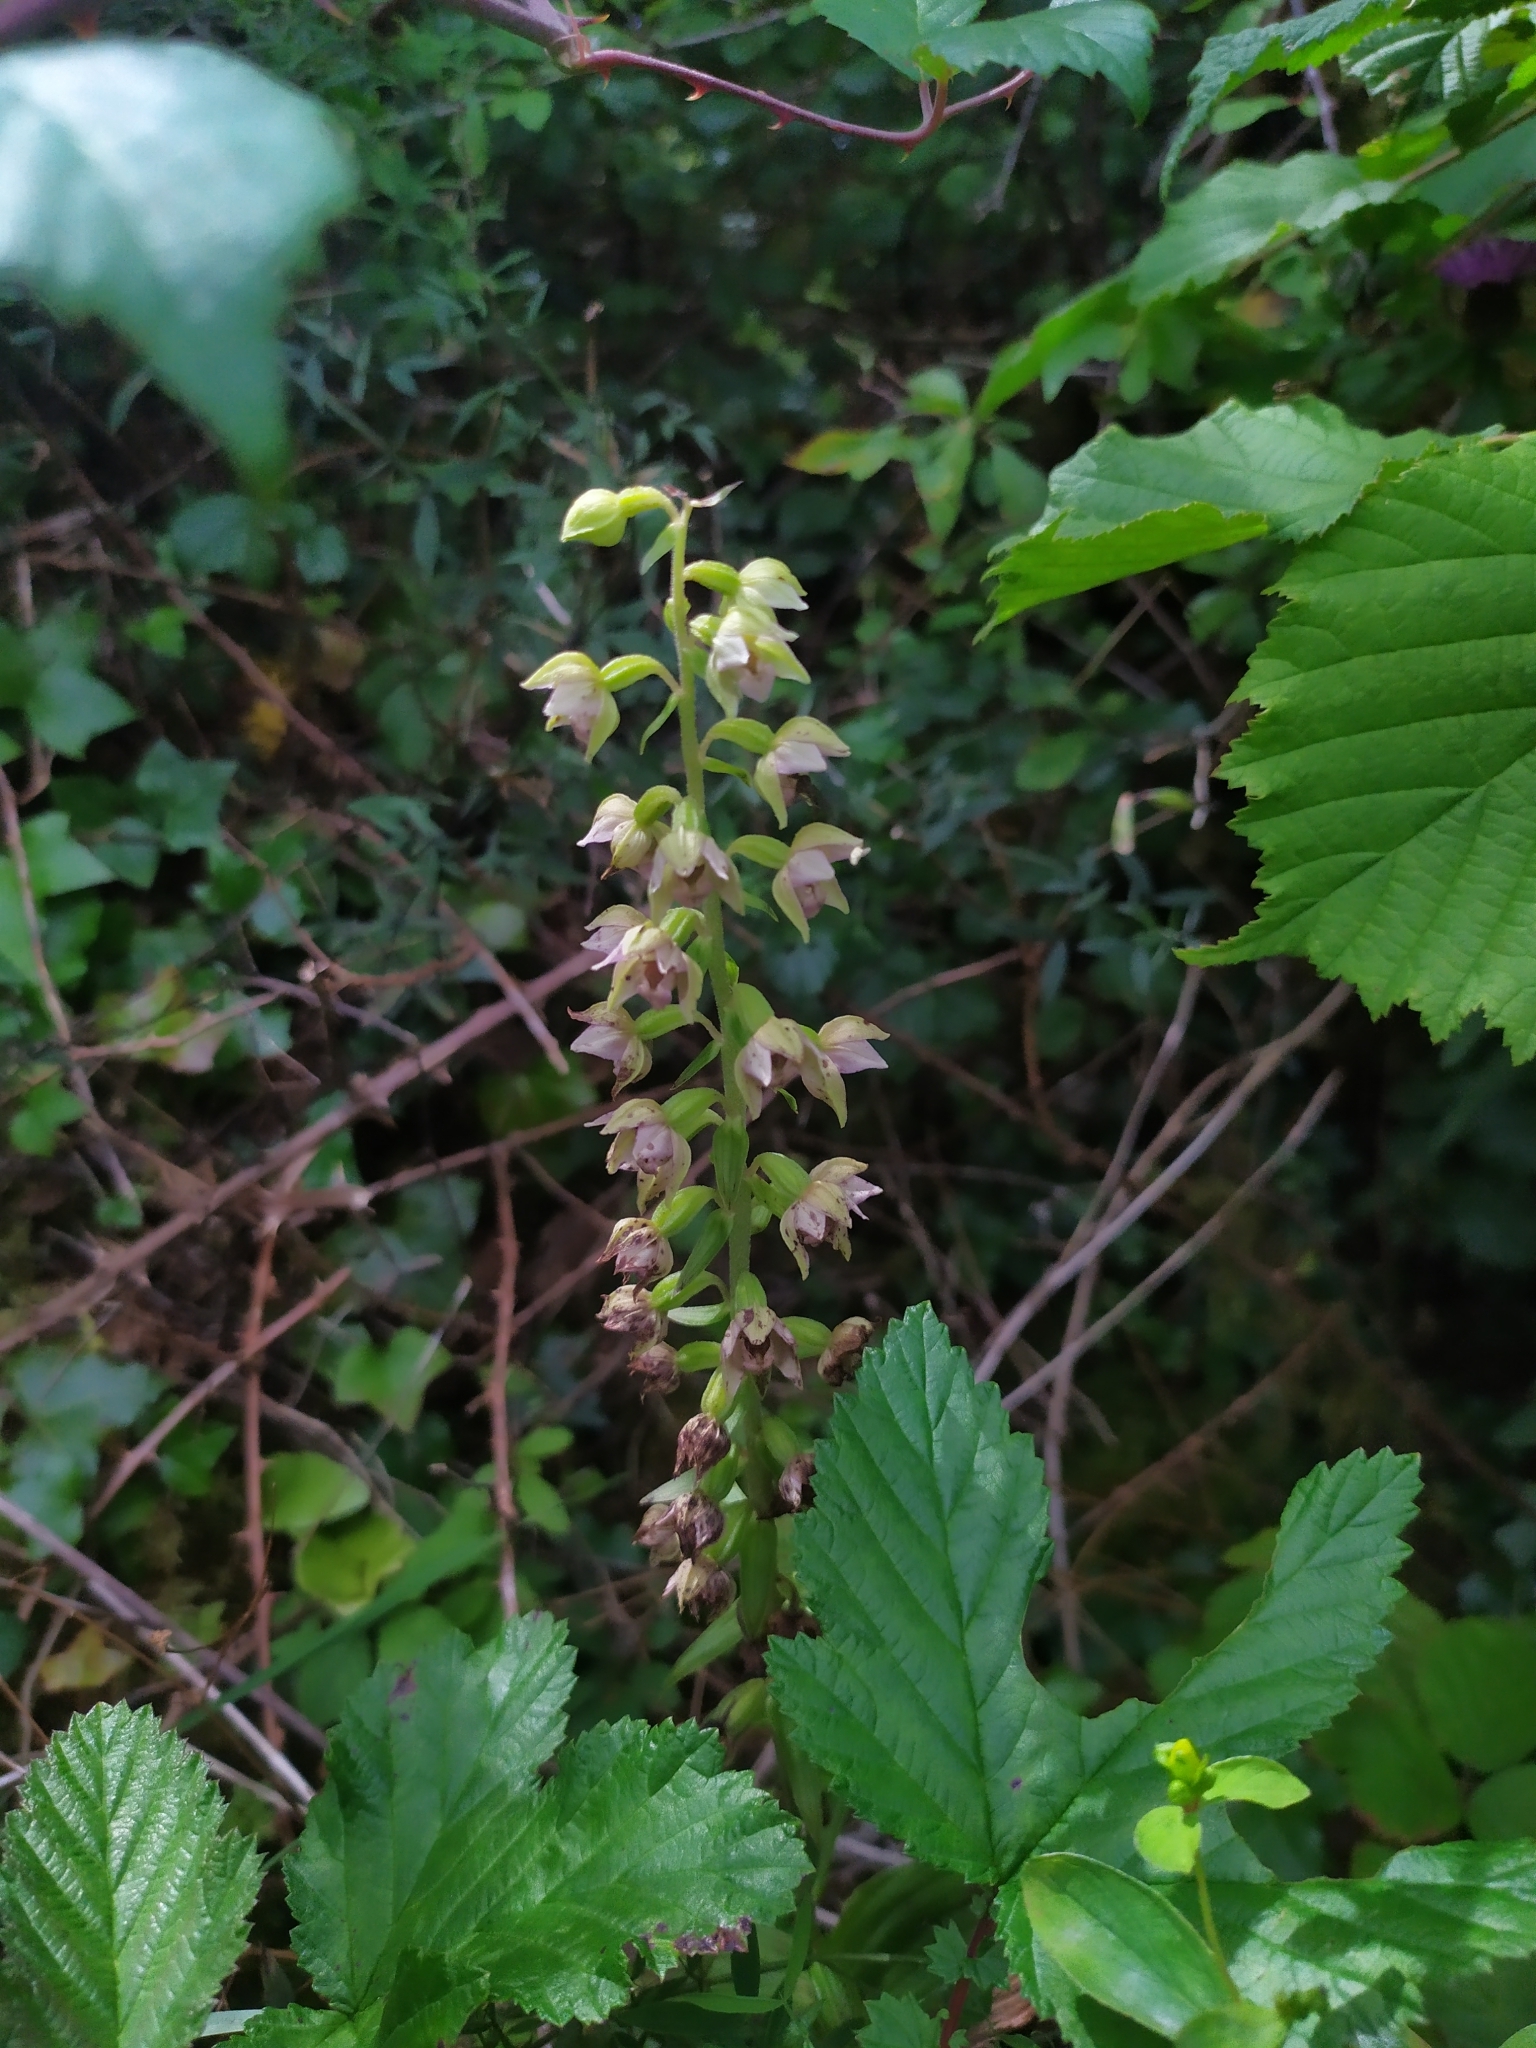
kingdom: Plantae
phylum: Tracheophyta
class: Liliopsida
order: Asparagales
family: Orchidaceae
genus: Epipactis
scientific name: Epipactis helleborine
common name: Broad-leaved helleborine
